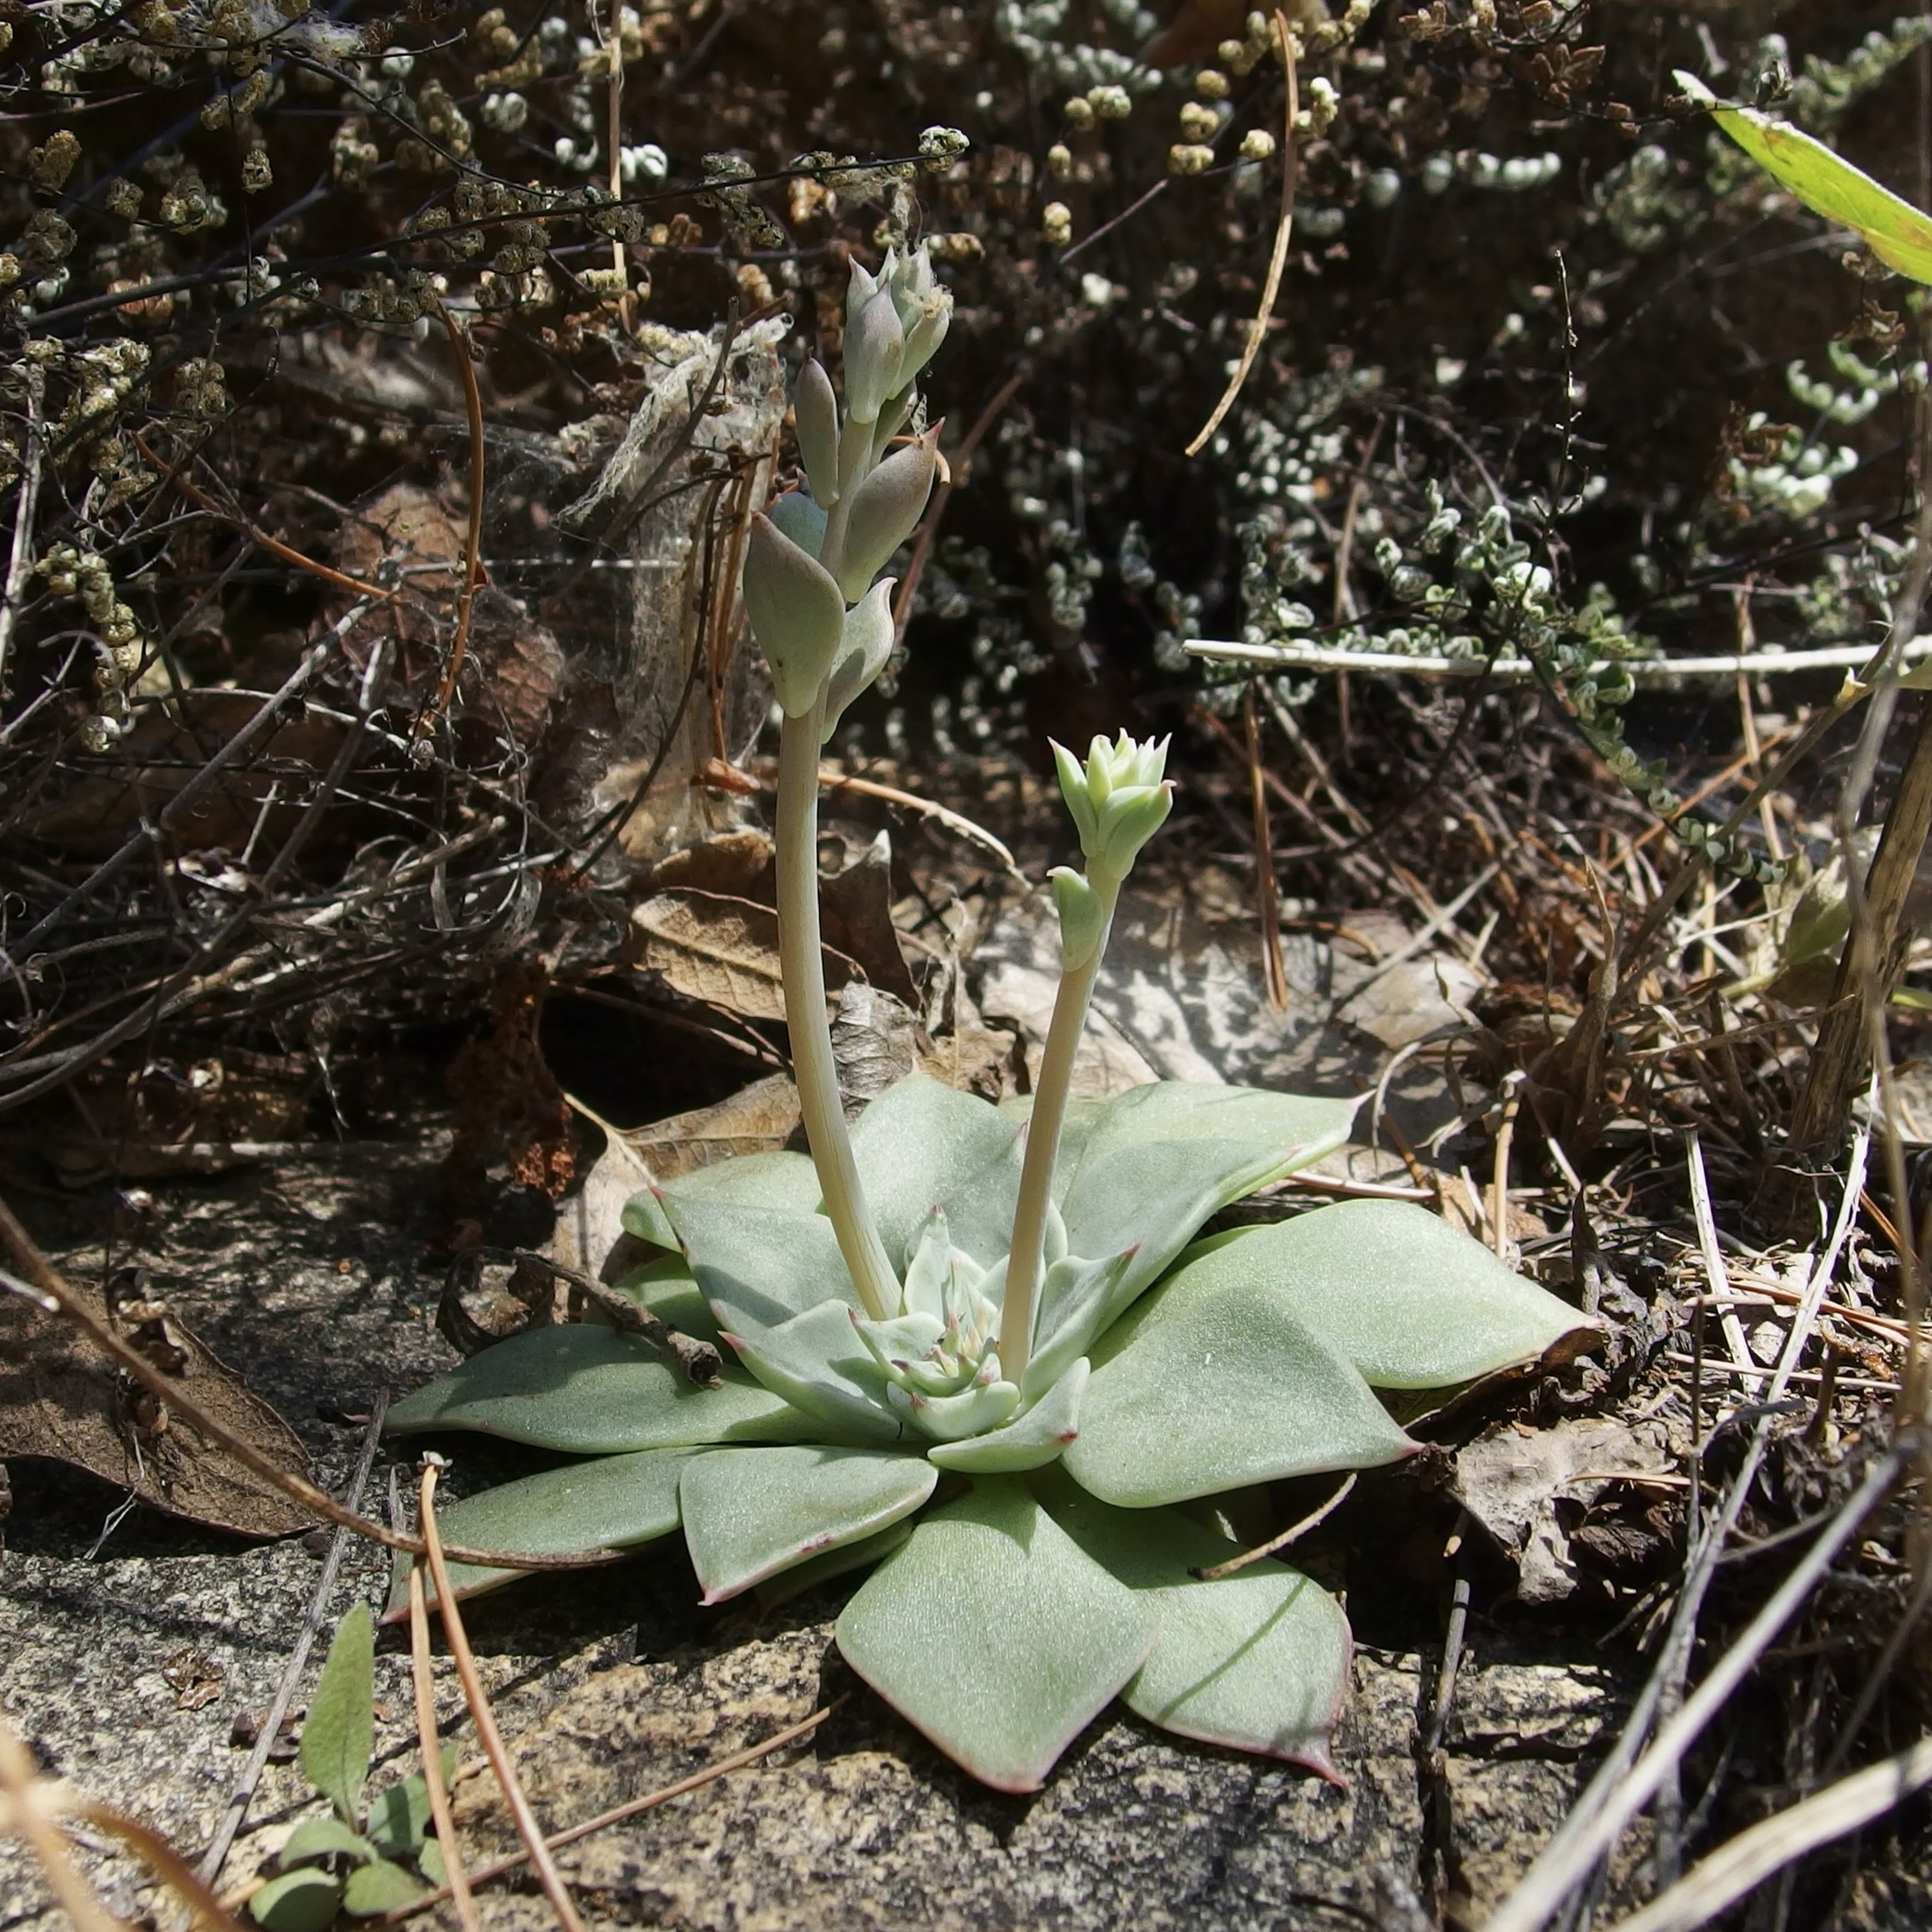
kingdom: Plantae
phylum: Tracheophyta
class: Magnoliopsida
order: Saxifragales
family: Crassulaceae
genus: Graptopetalum
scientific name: Graptopetalum bartramii
